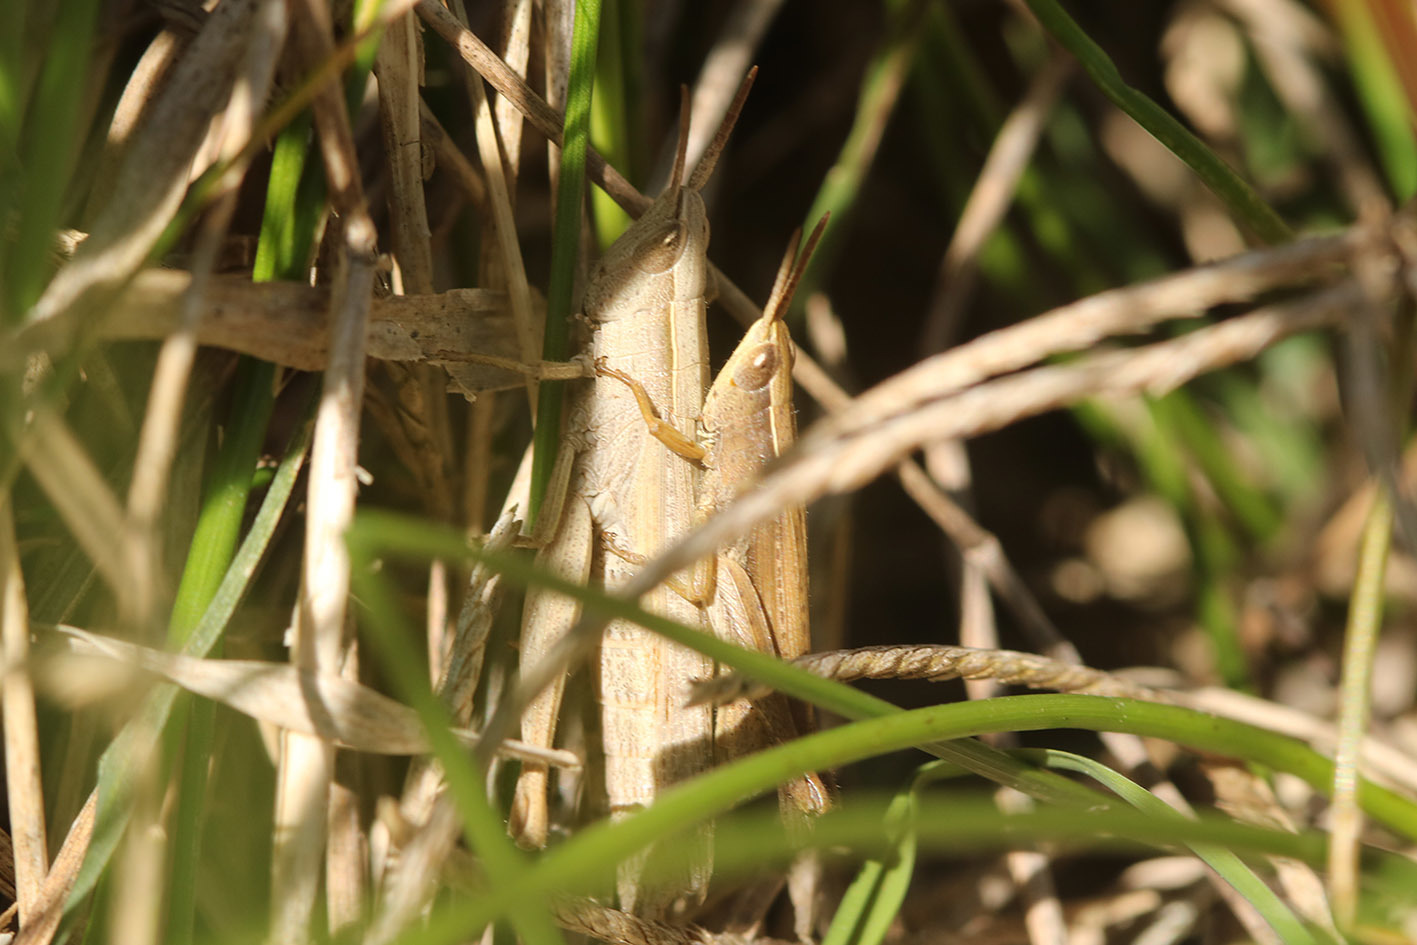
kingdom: Animalia
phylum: Arthropoda
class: Insecta
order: Orthoptera
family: Acrididae
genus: Laplatacris
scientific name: Laplatacris dispar
